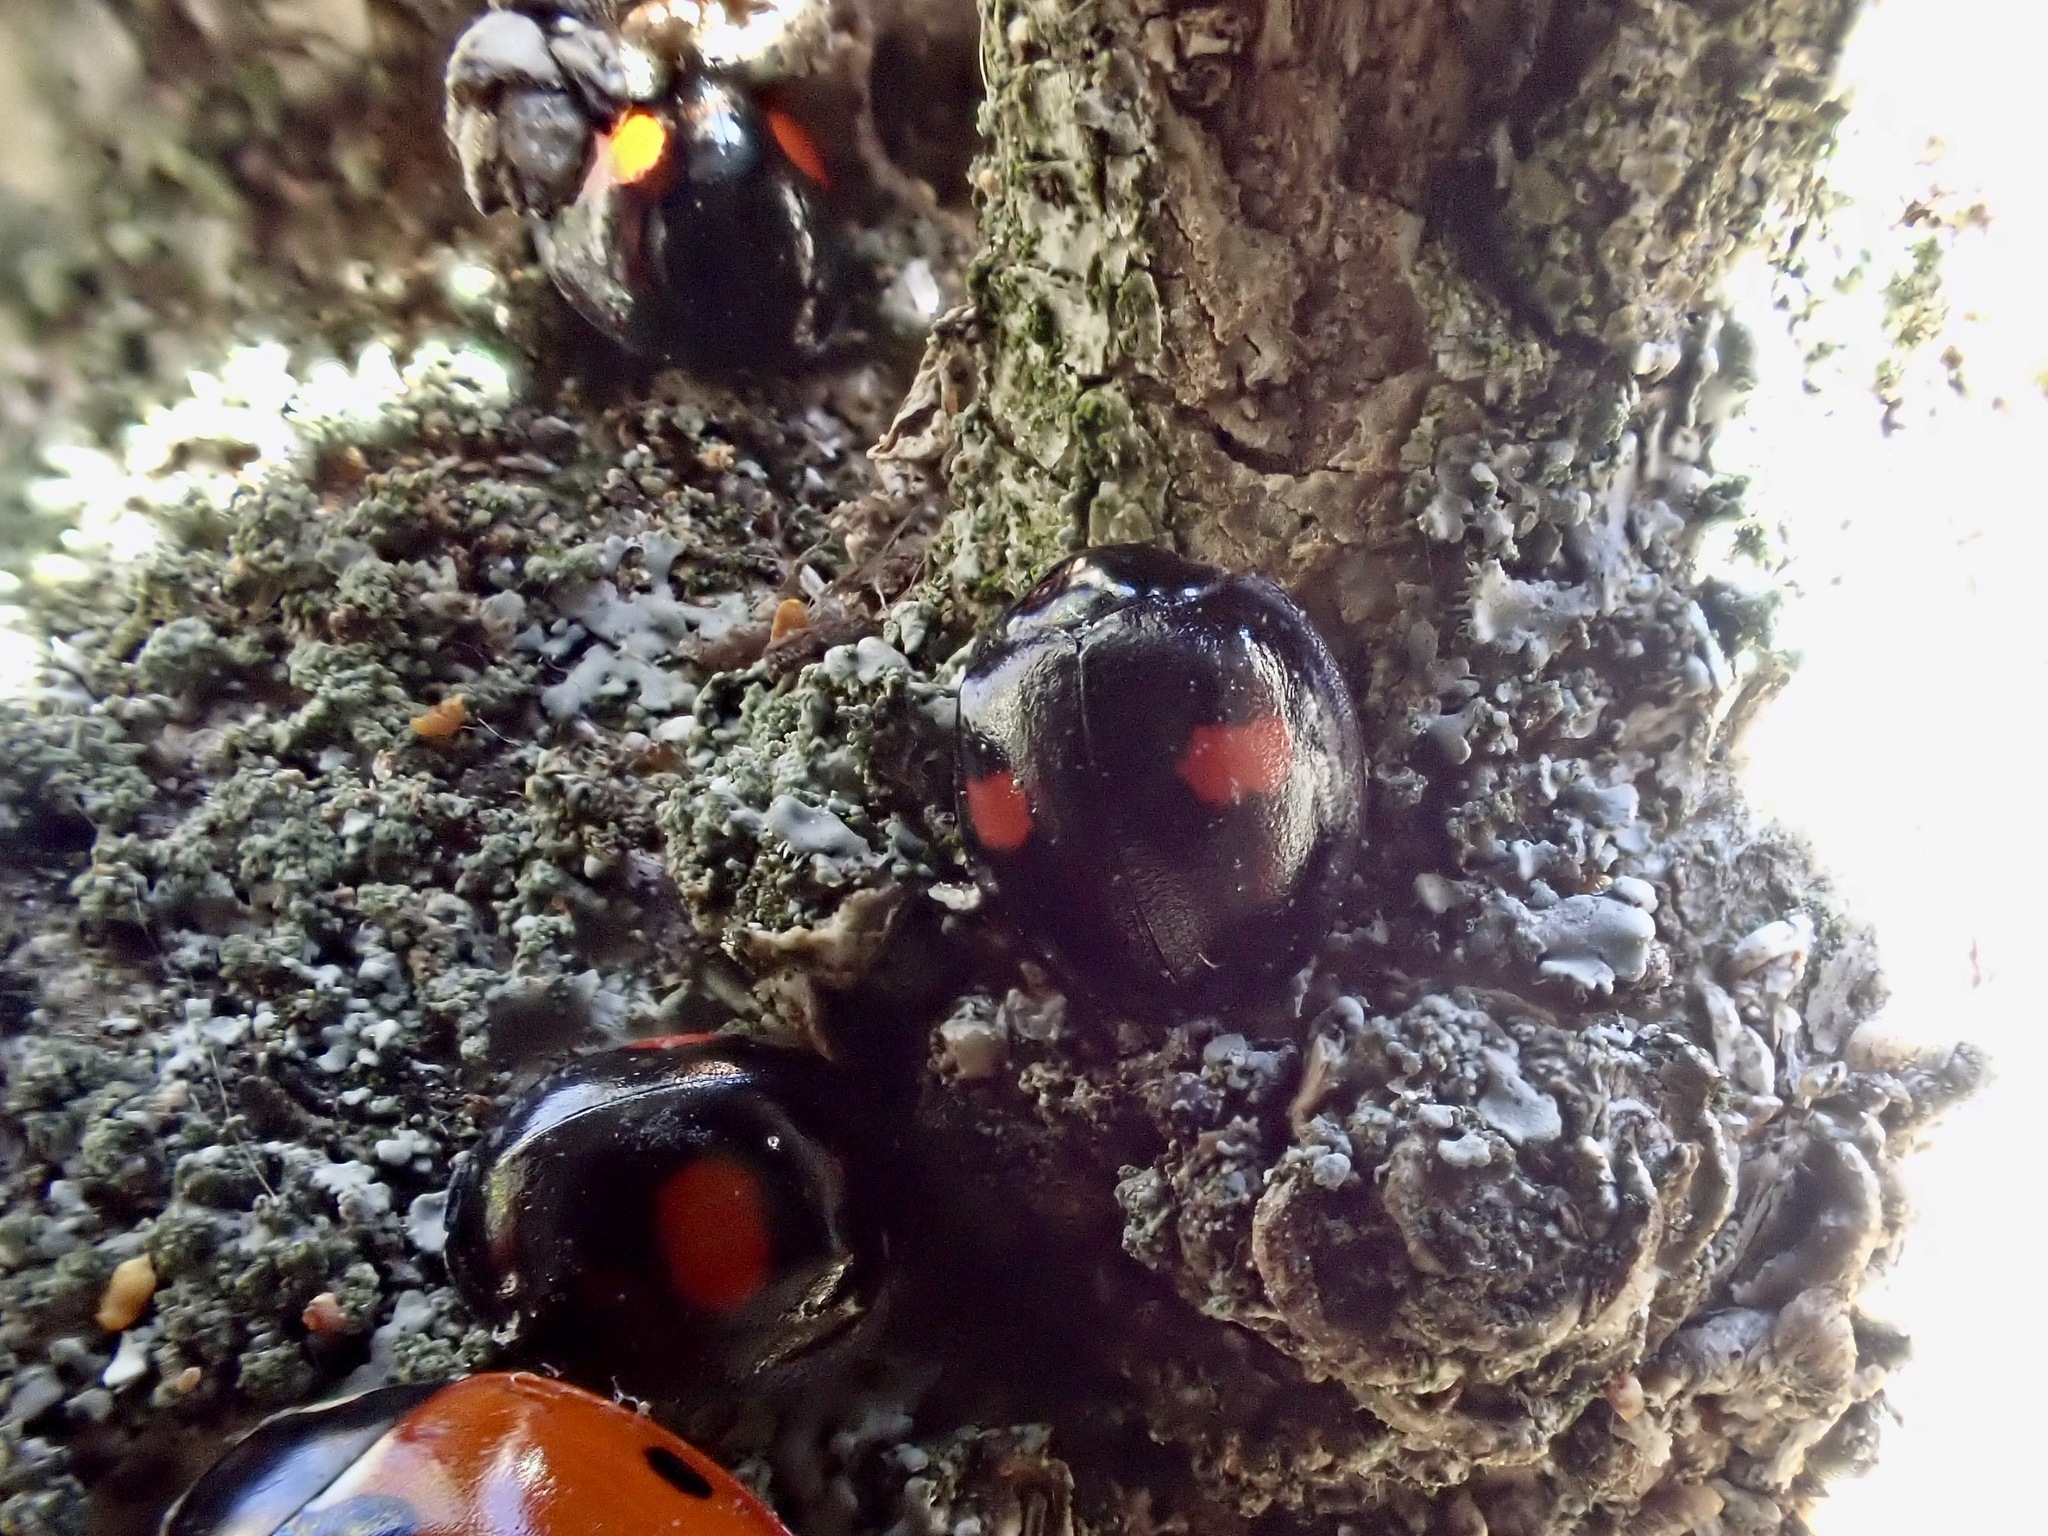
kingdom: Animalia
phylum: Arthropoda
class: Insecta
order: Coleoptera
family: Coccinellidae
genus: Chilocorus
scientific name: Chilocorus renipustulatus
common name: Kidney-spot ladybird
